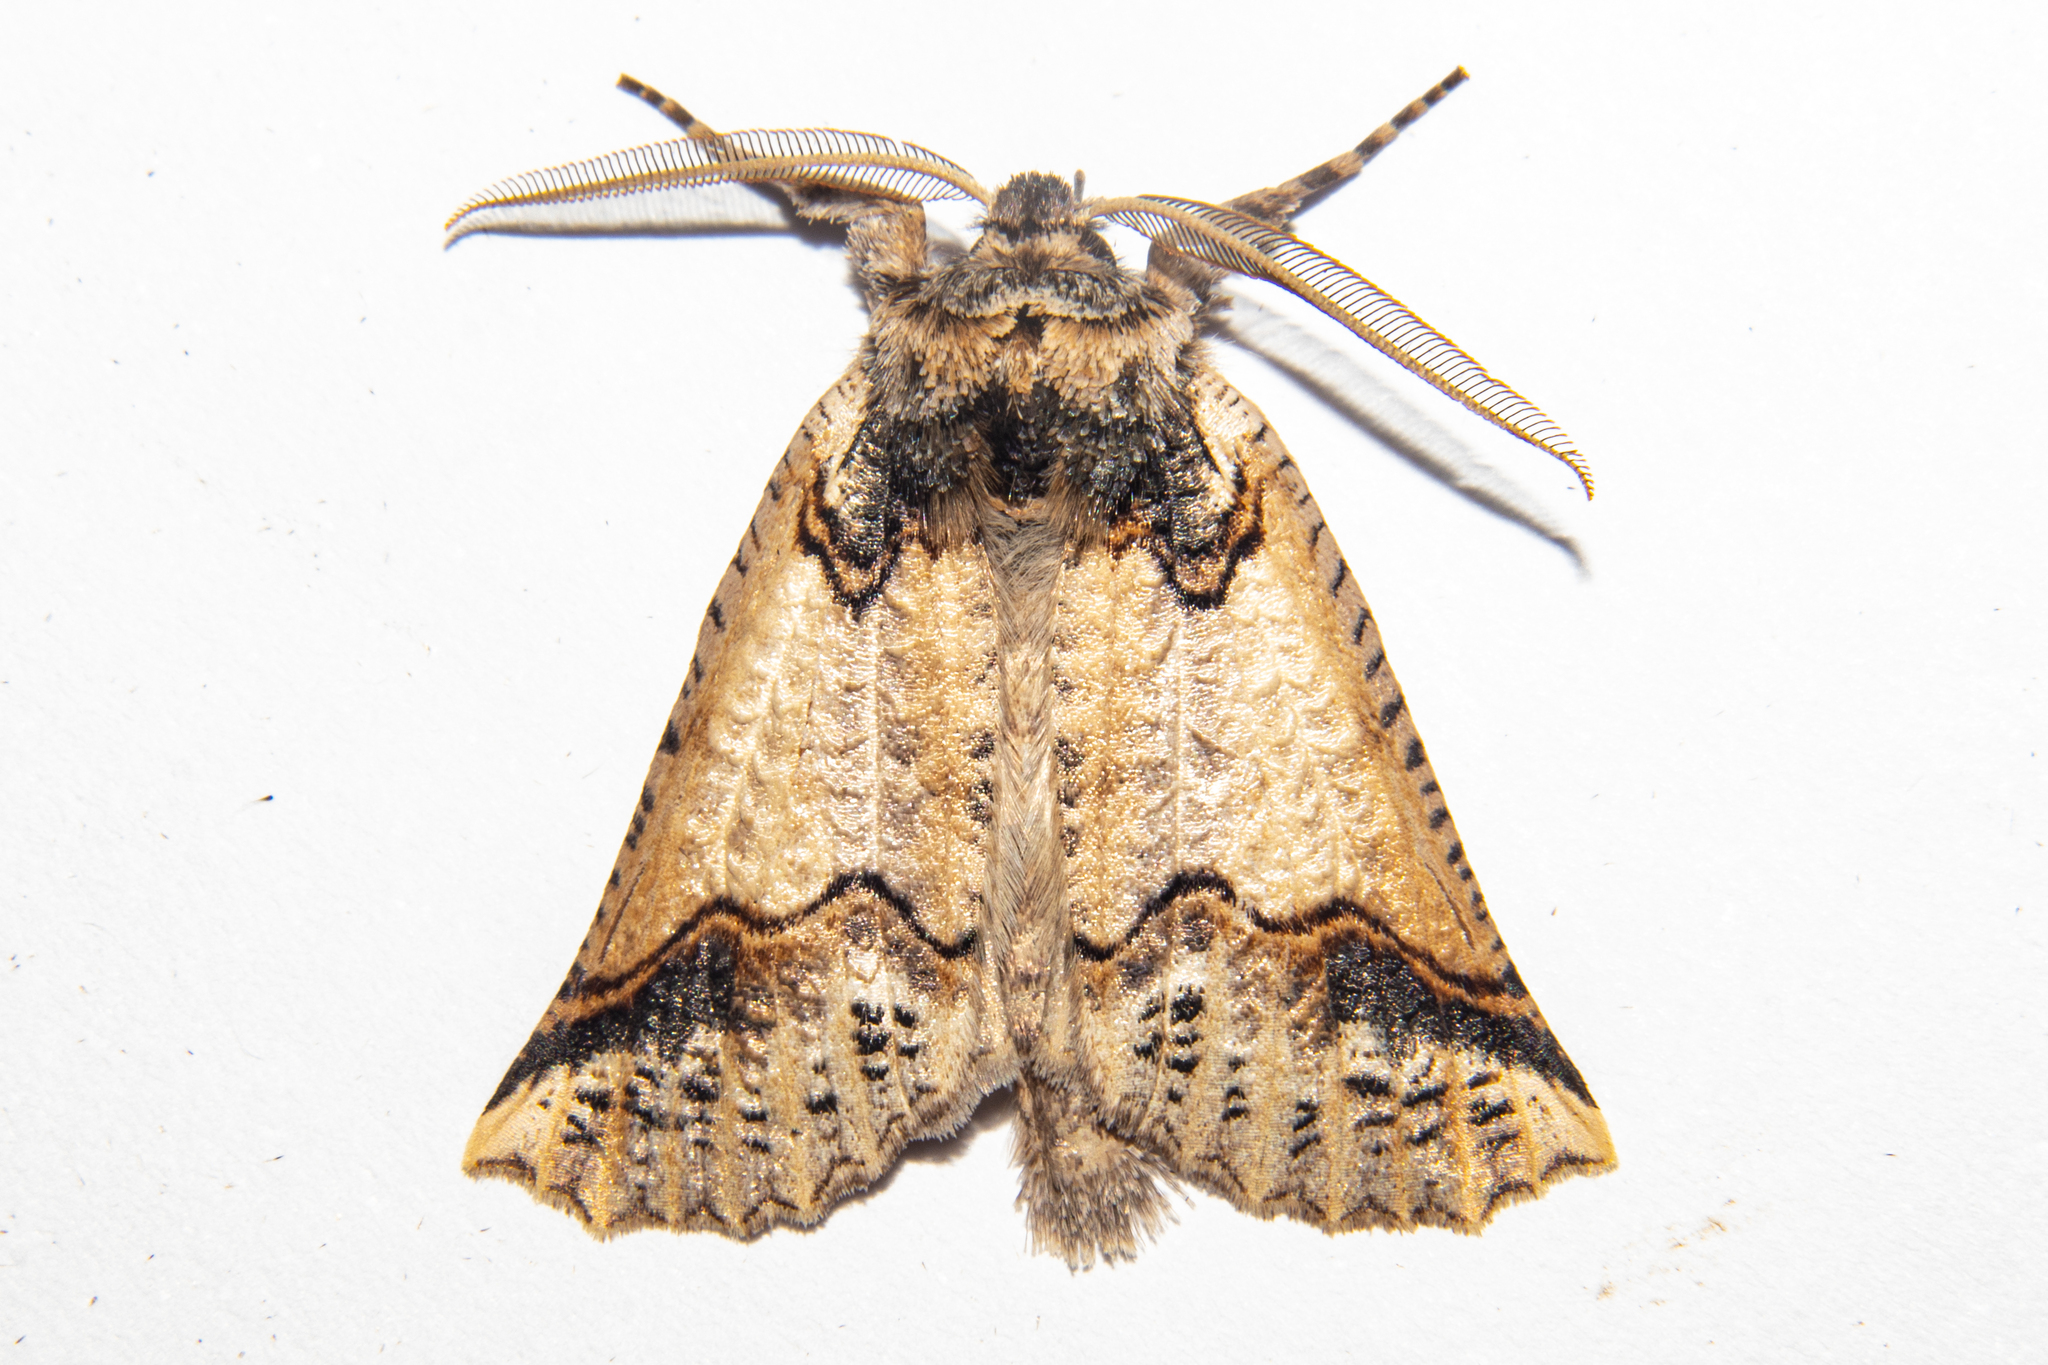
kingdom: Animalia
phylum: Arthropoda
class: Insecta
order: Lepidoptera
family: Geometridae
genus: Declana
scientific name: Declana
